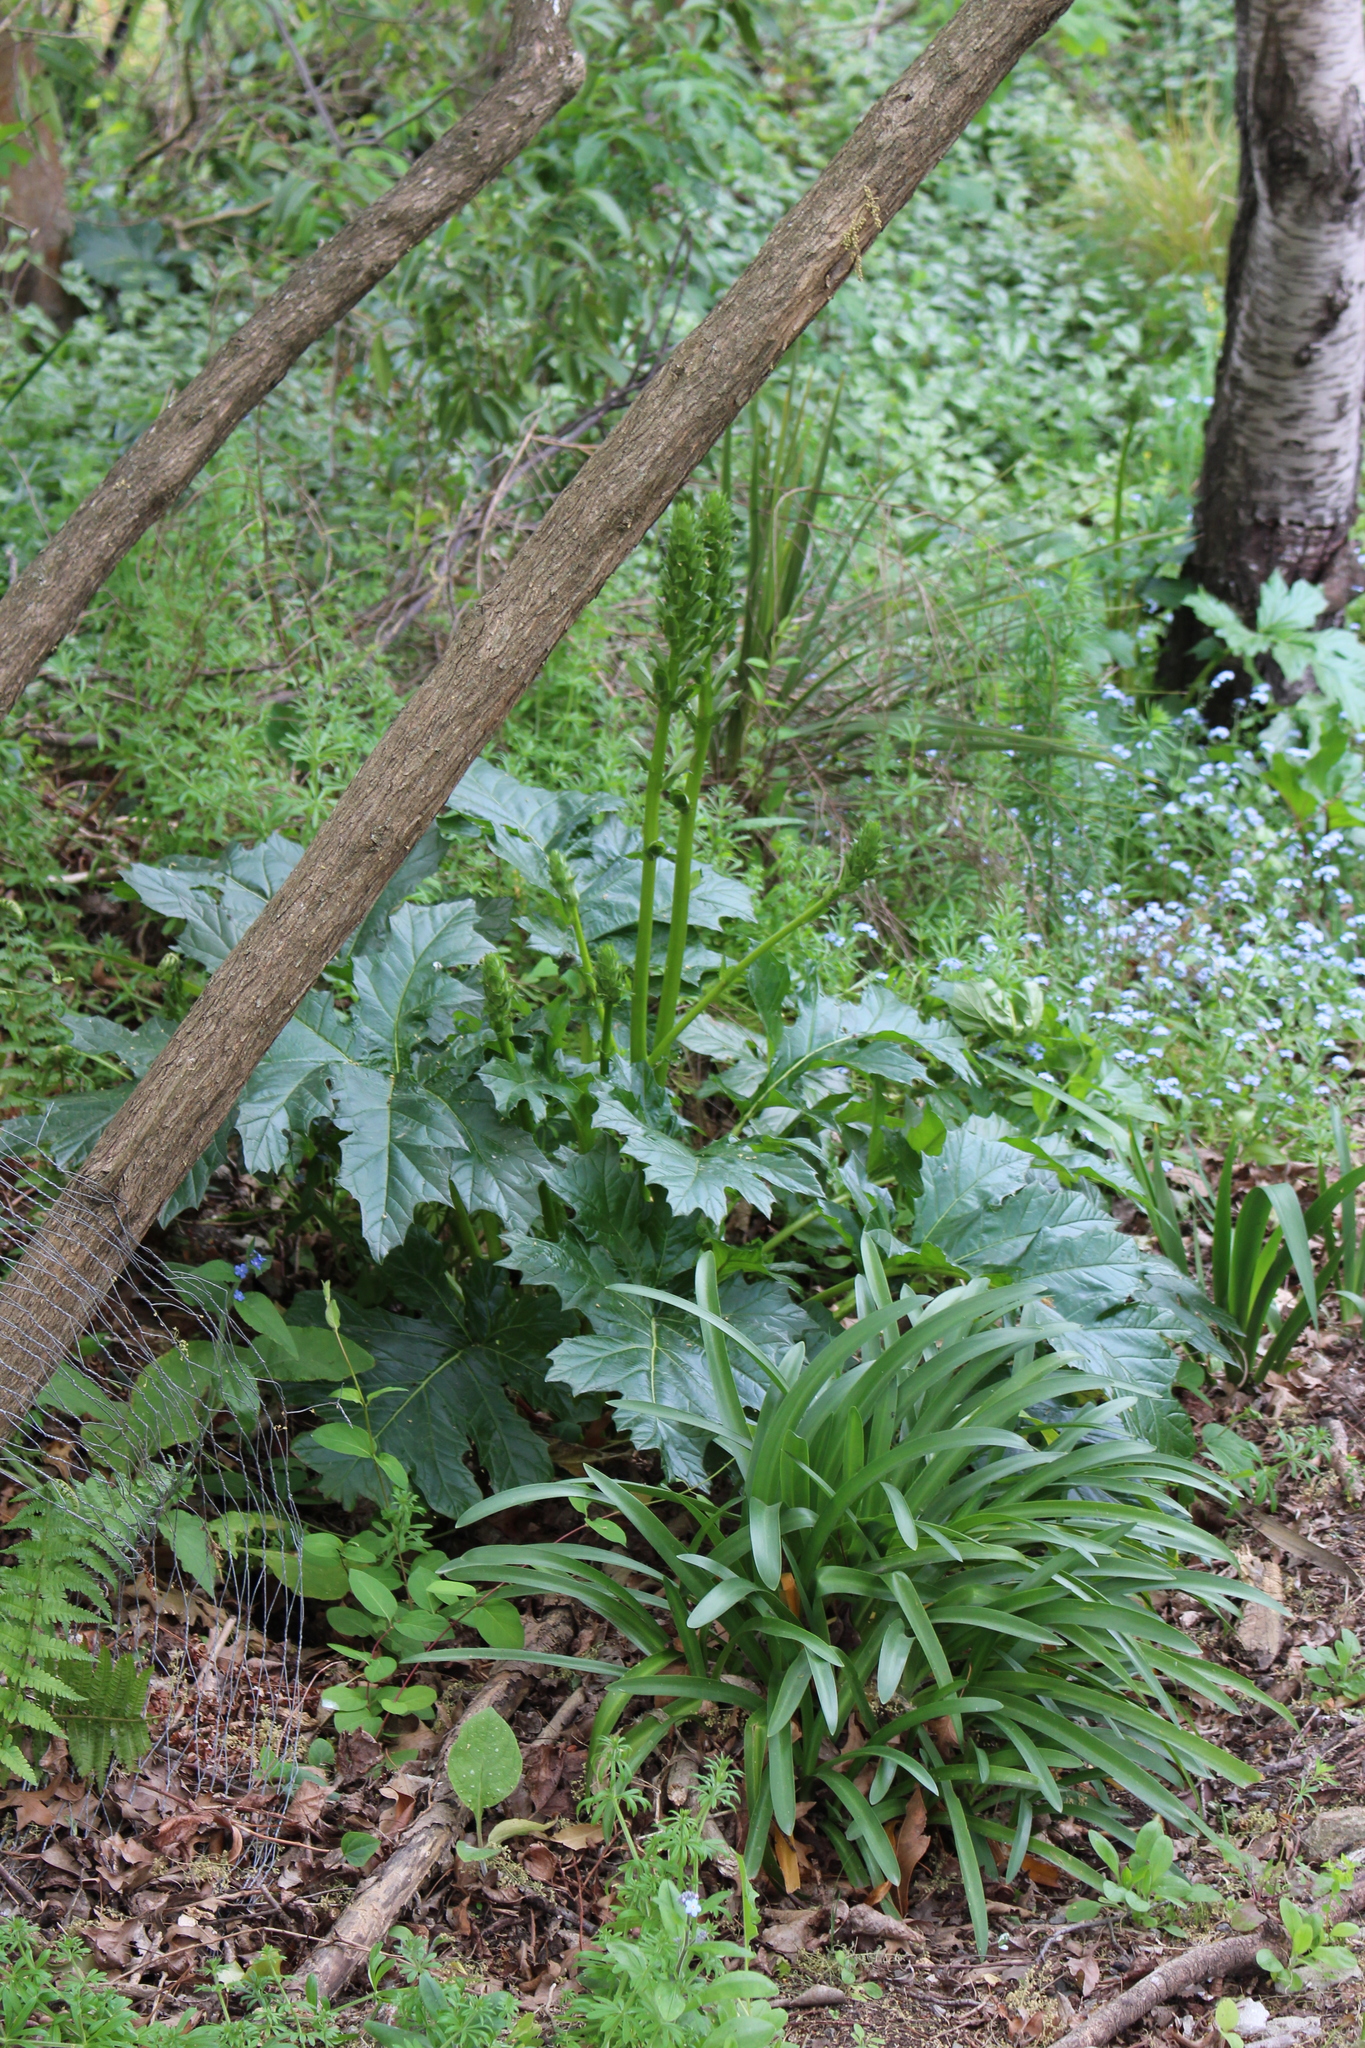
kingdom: Plantae
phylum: Tracheophyta
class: Magnoliopsida
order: Lamiales
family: Acanthaceae
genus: Acanthus
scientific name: Acanthus mollis
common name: Bear's-breech
